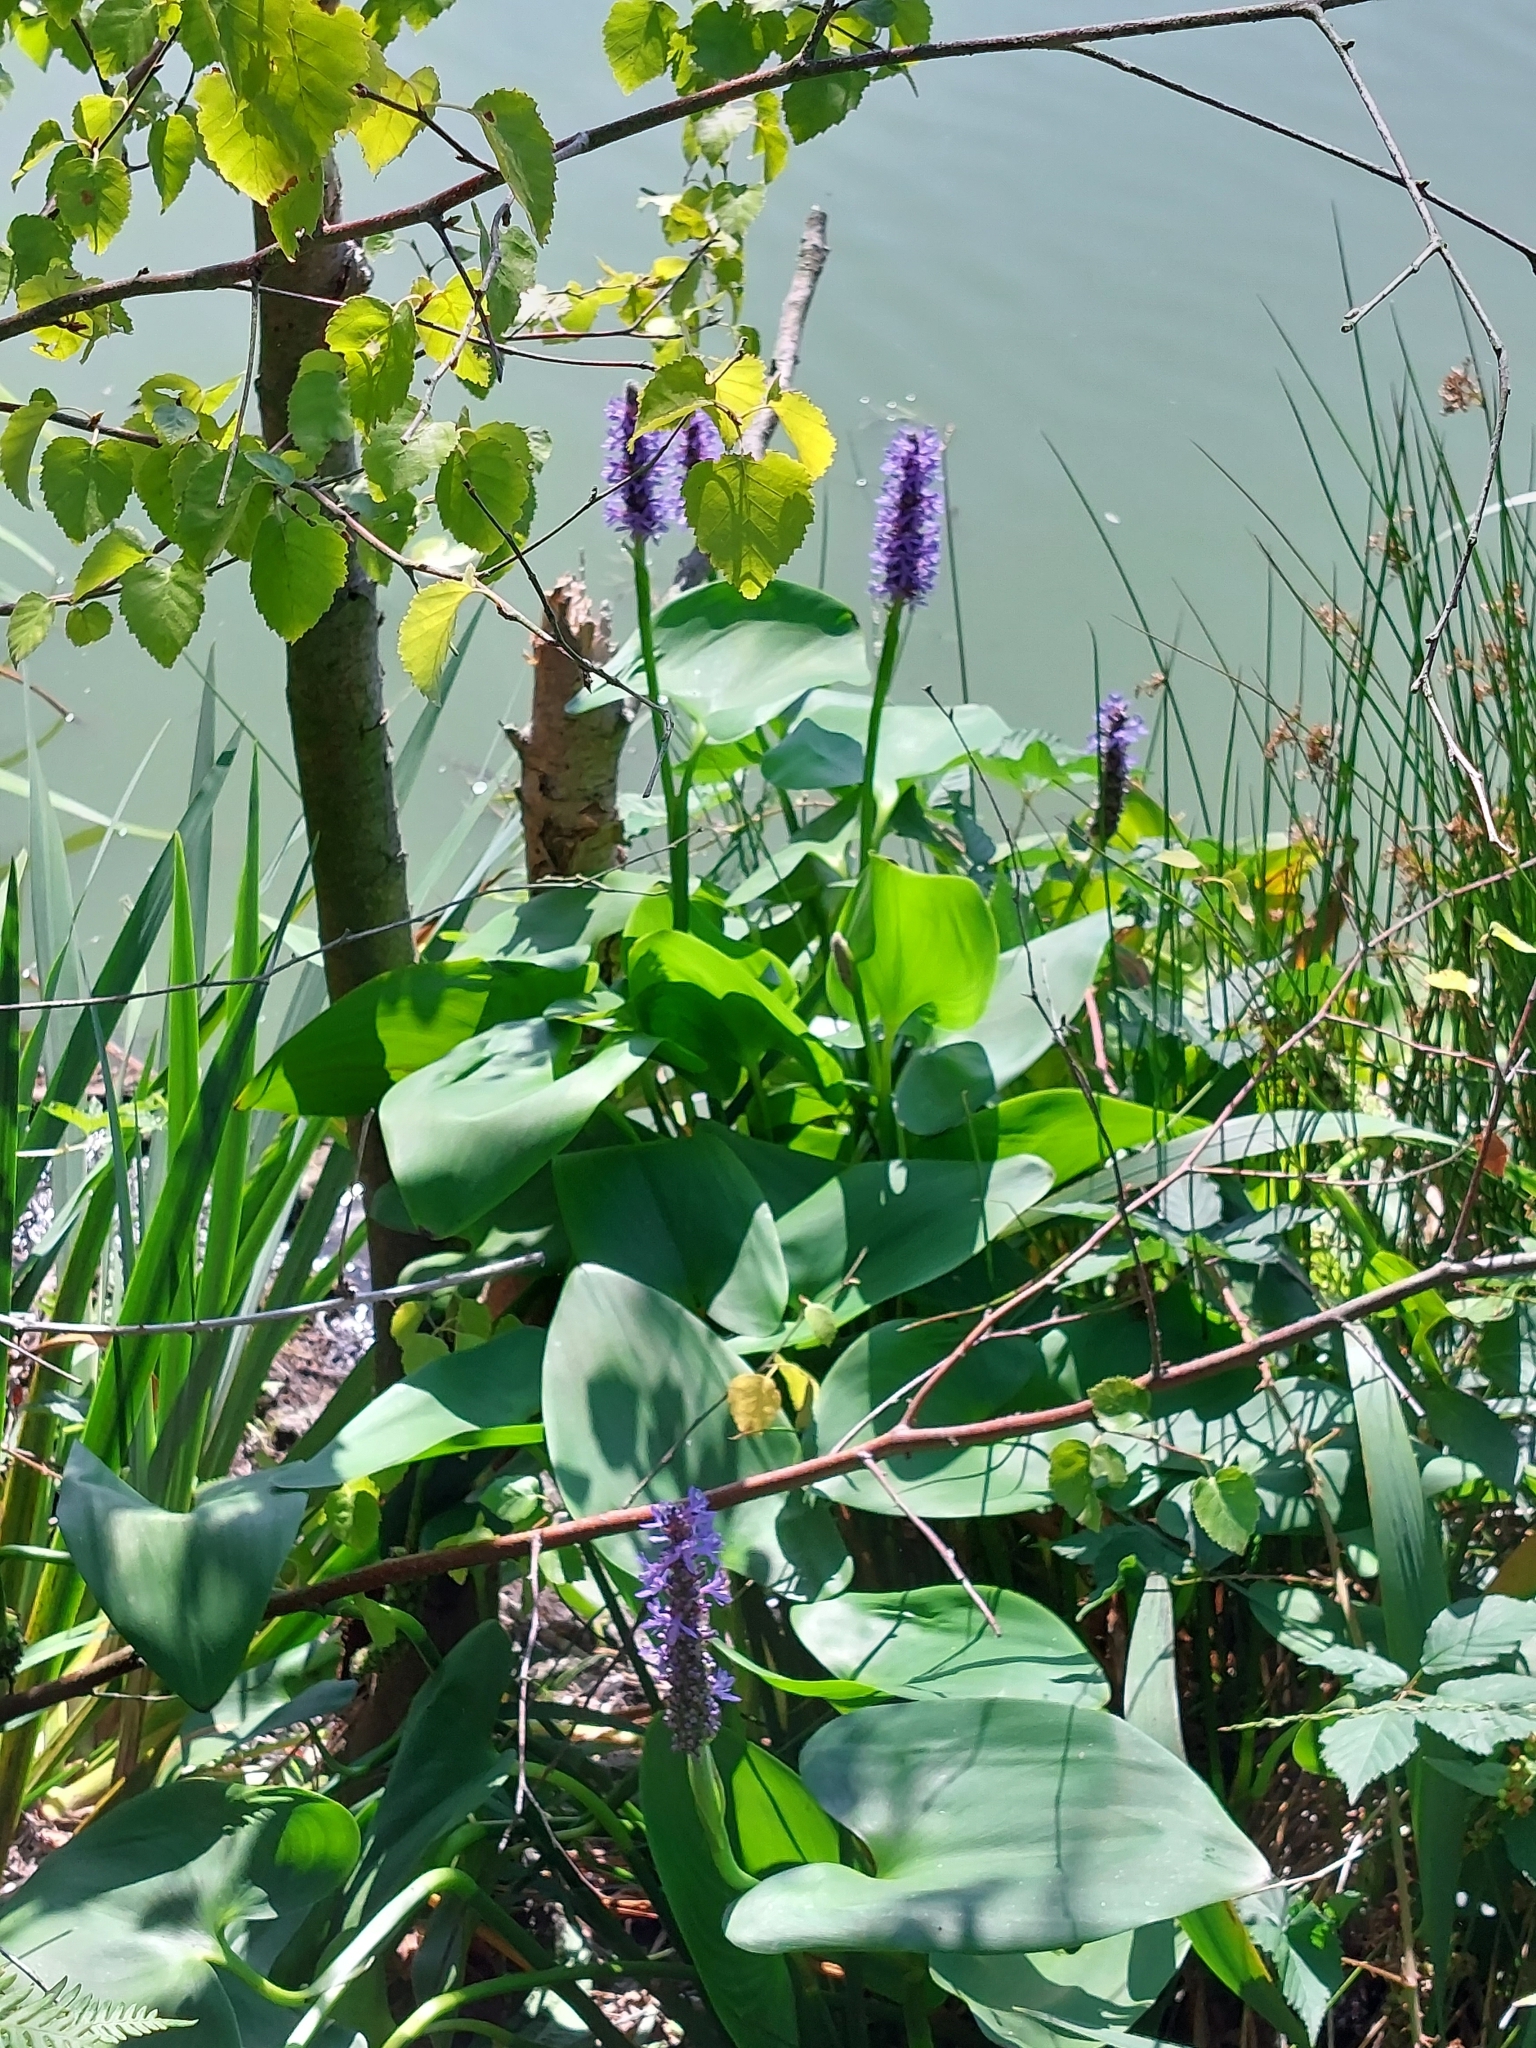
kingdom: Plantae
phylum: Tracheophyta
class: Liliopsida
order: Commelinales
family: Pontederiaceae
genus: Pontederia
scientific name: Pontederia cordata
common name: Pickerelweed
